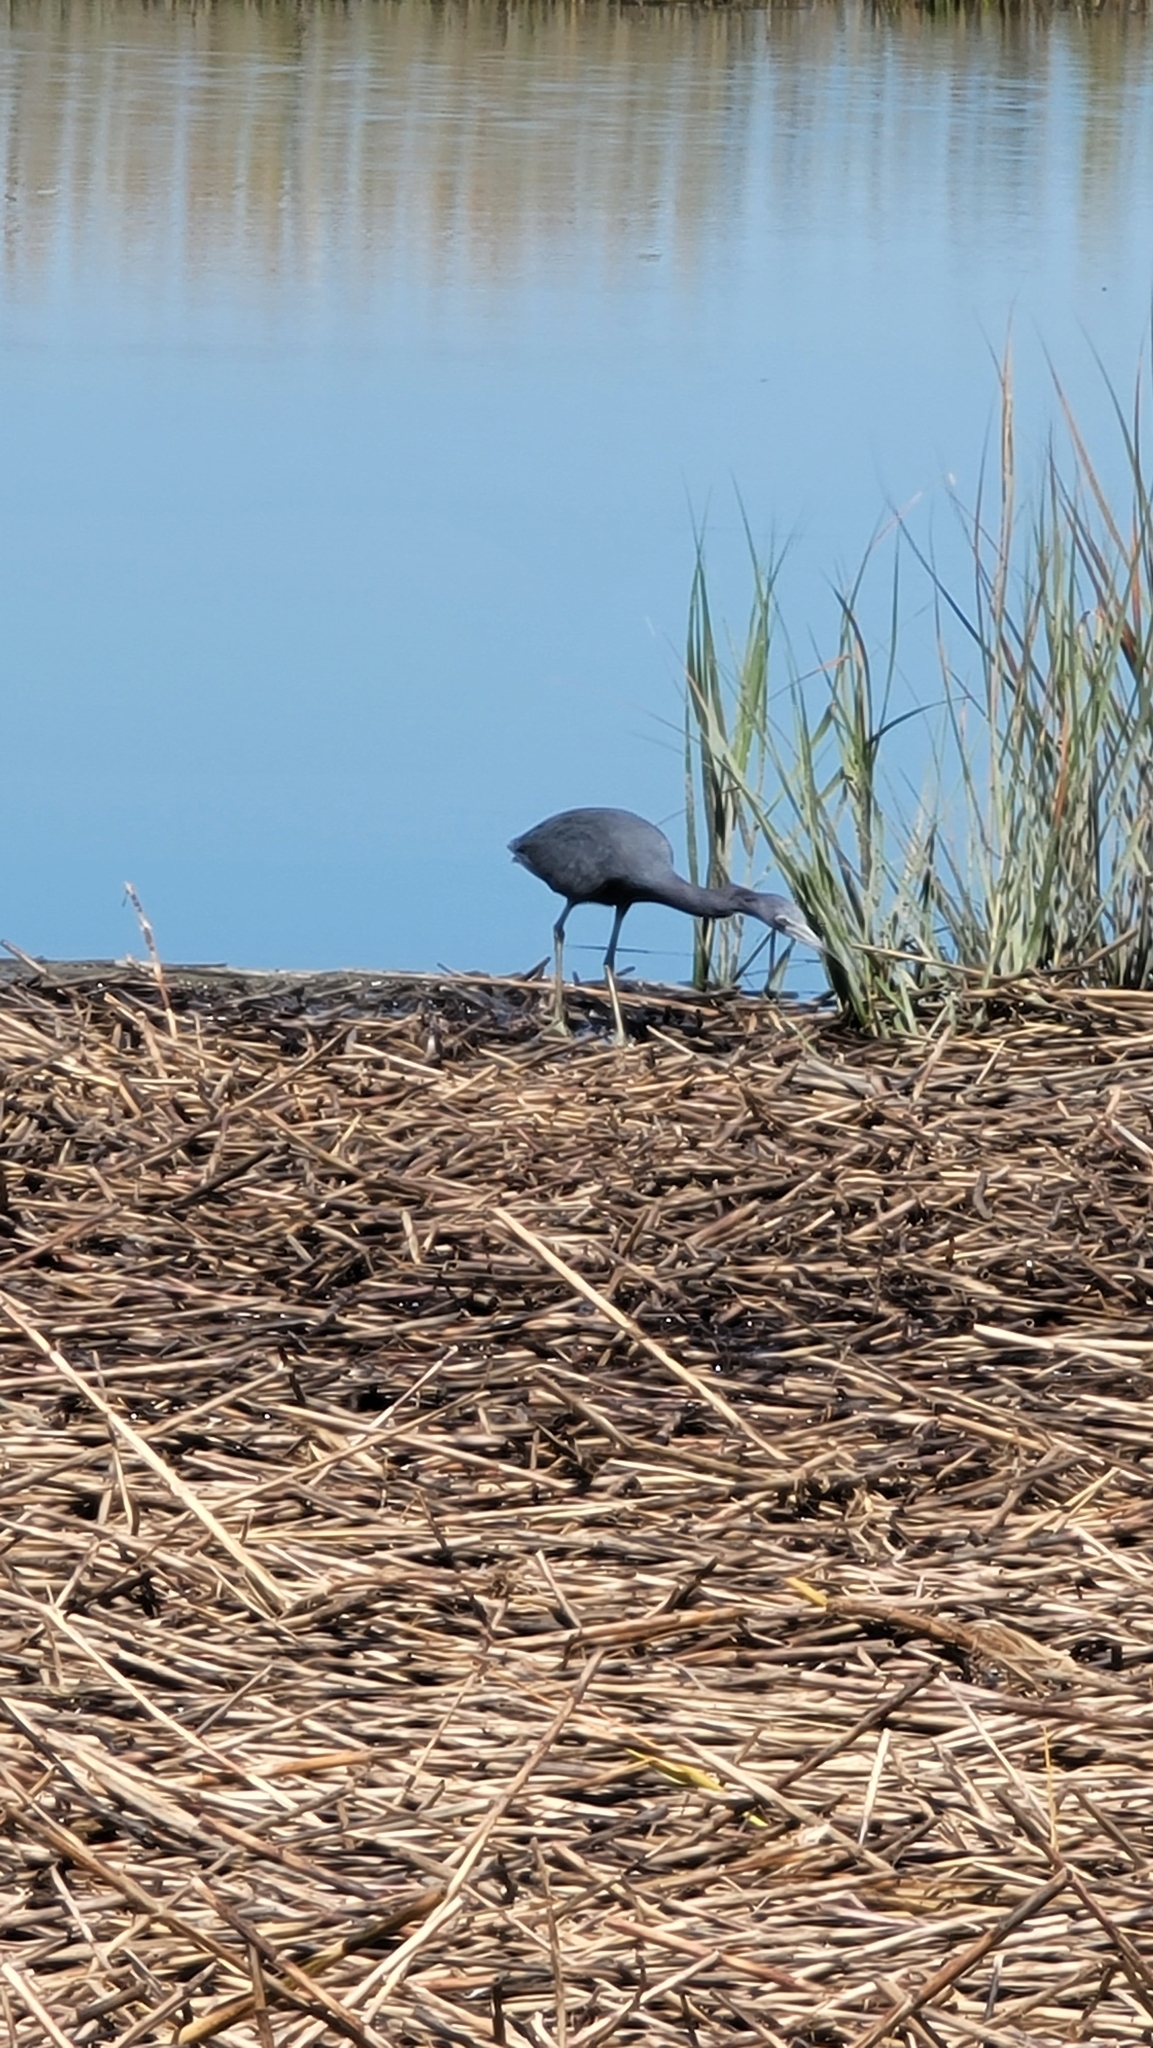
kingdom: Animalia
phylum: Chordata
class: Aves
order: Pelecaniformes
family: Ardeidae
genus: Egretta
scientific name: Egretta caerulea
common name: Little blue heron
